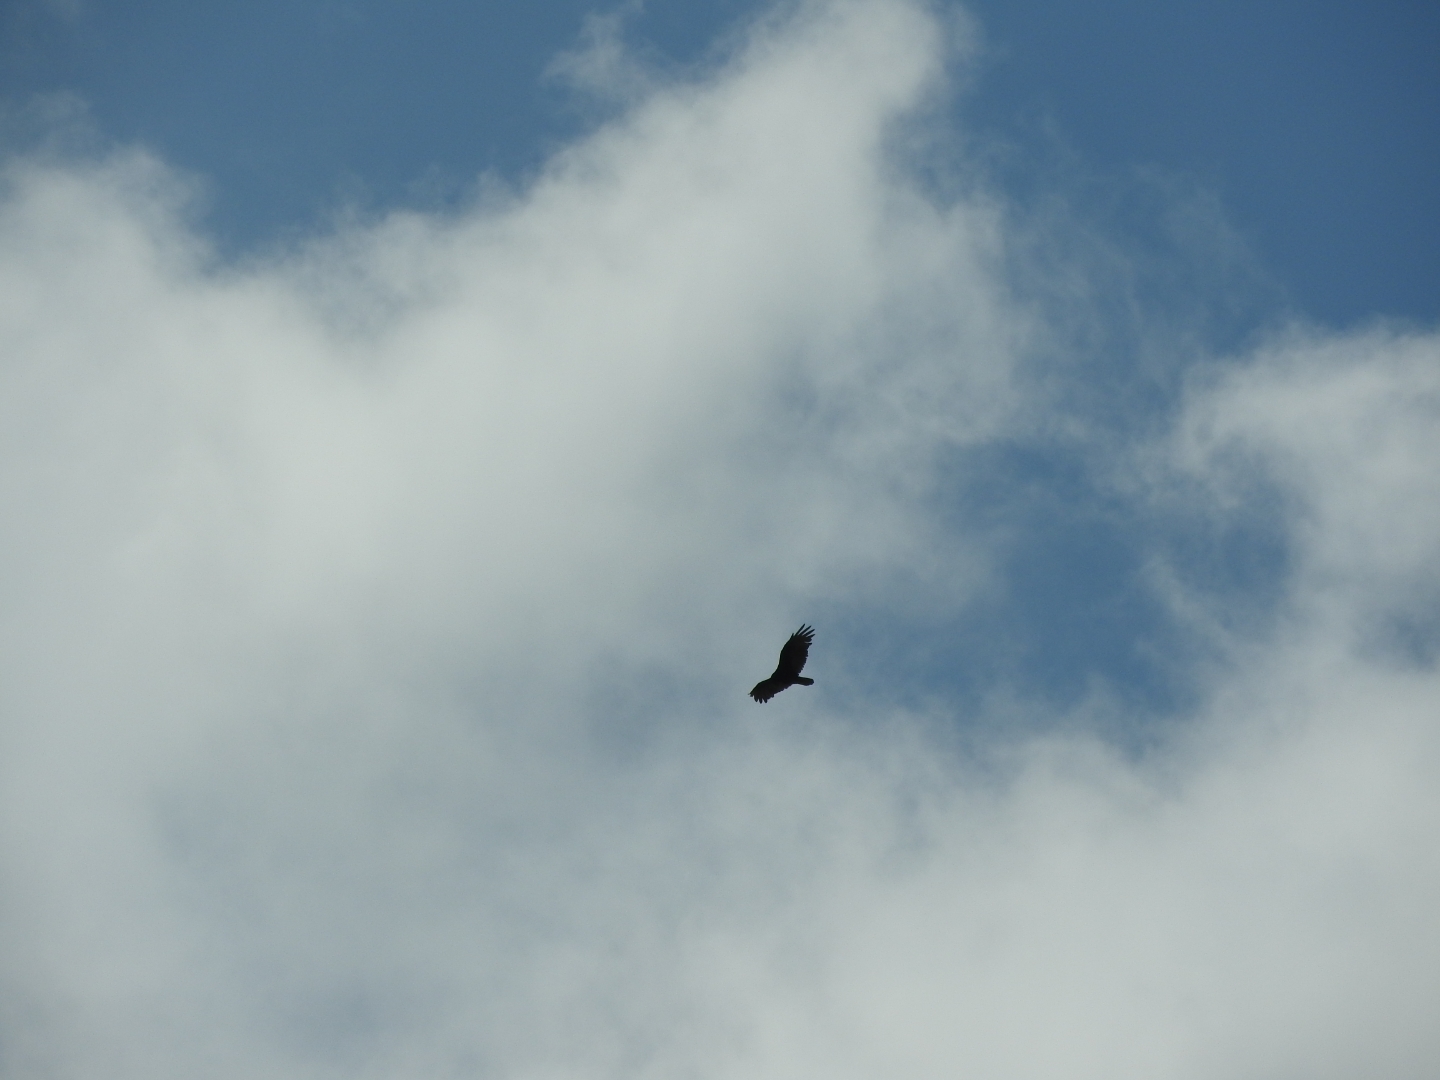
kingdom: Animalia
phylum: Chordata
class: Aves
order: Accipitriformes
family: Cathartidae
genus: Cathartes
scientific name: Cathartes aura
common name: Turkey vulture
